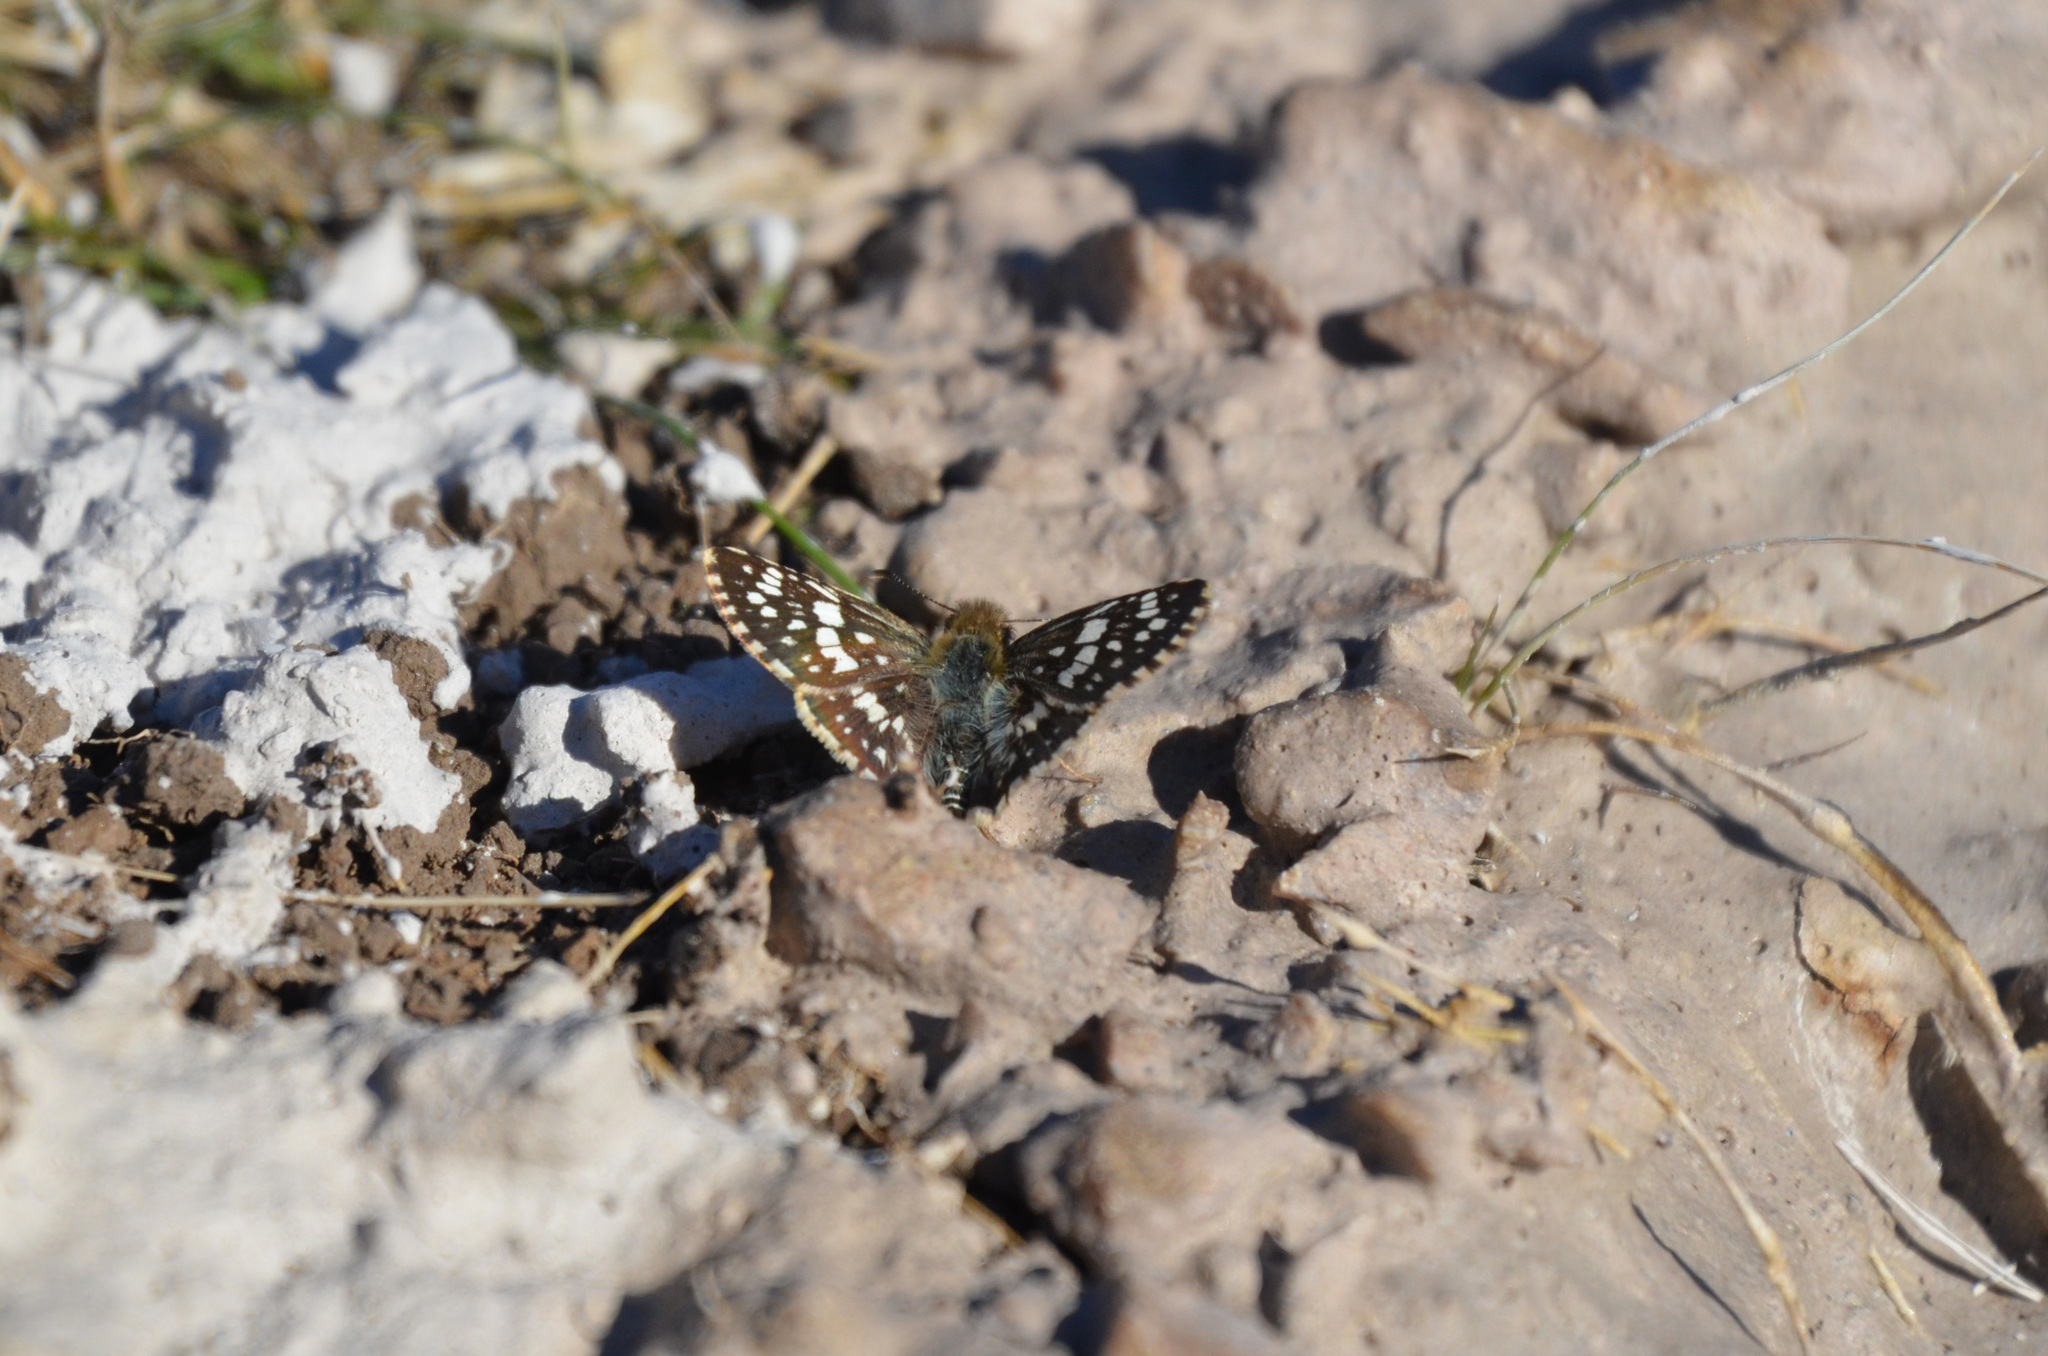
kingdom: Animalia
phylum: Arthropoda
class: Insecta
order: Lepidoptera
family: Hesperiidae
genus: Burnsius
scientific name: Burnsius orcynoides
